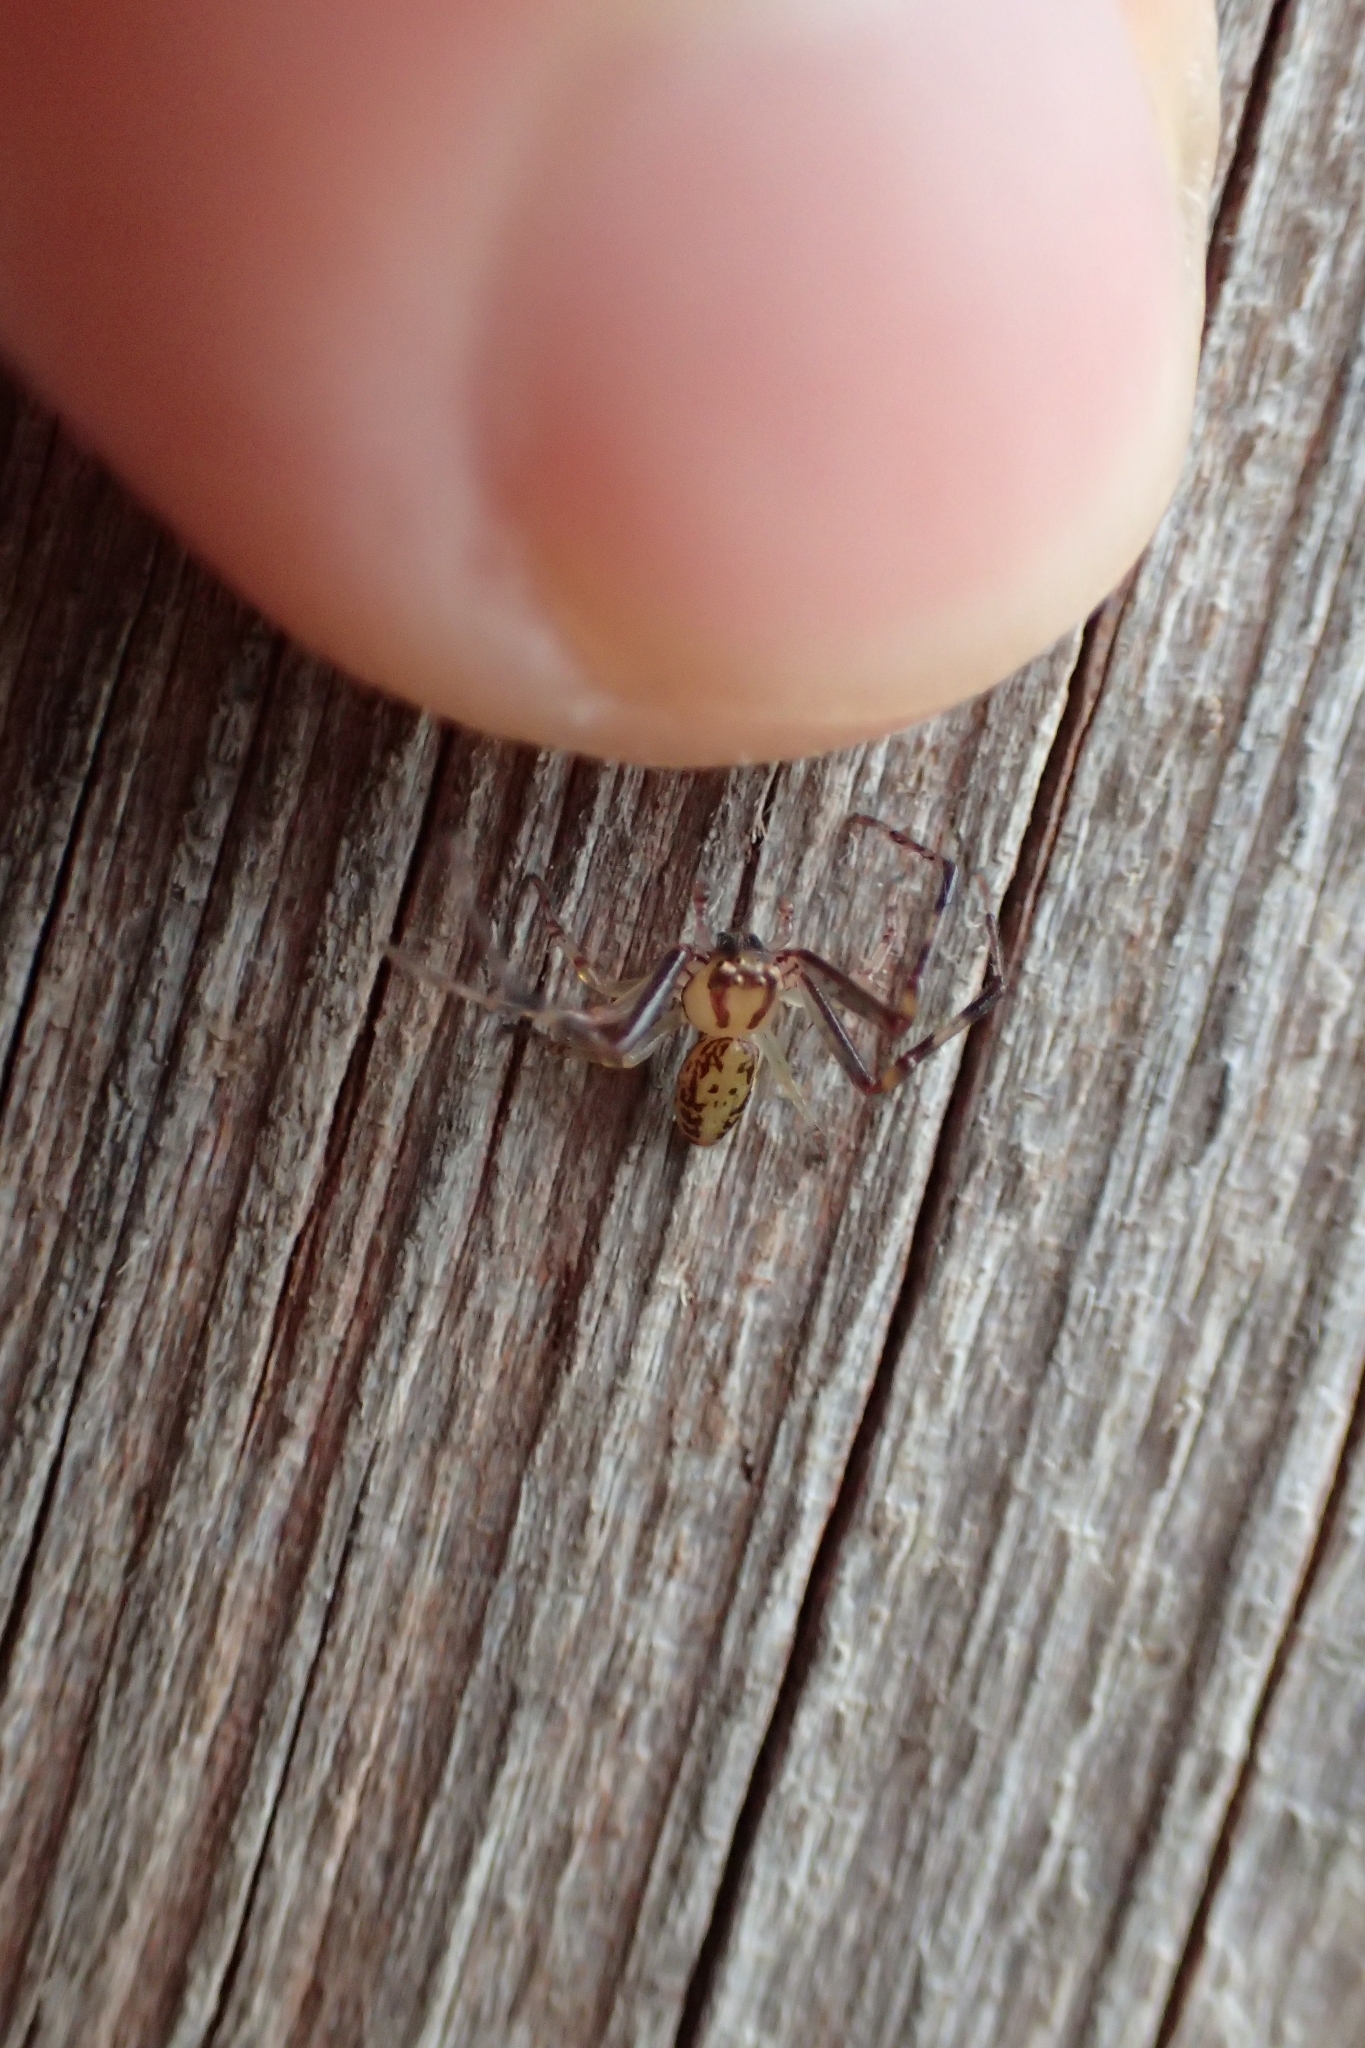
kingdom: Animalia
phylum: Arthropoda
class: Arachnida
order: Araneae
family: Thomisidae
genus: Diaea
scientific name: Diaea ambara
